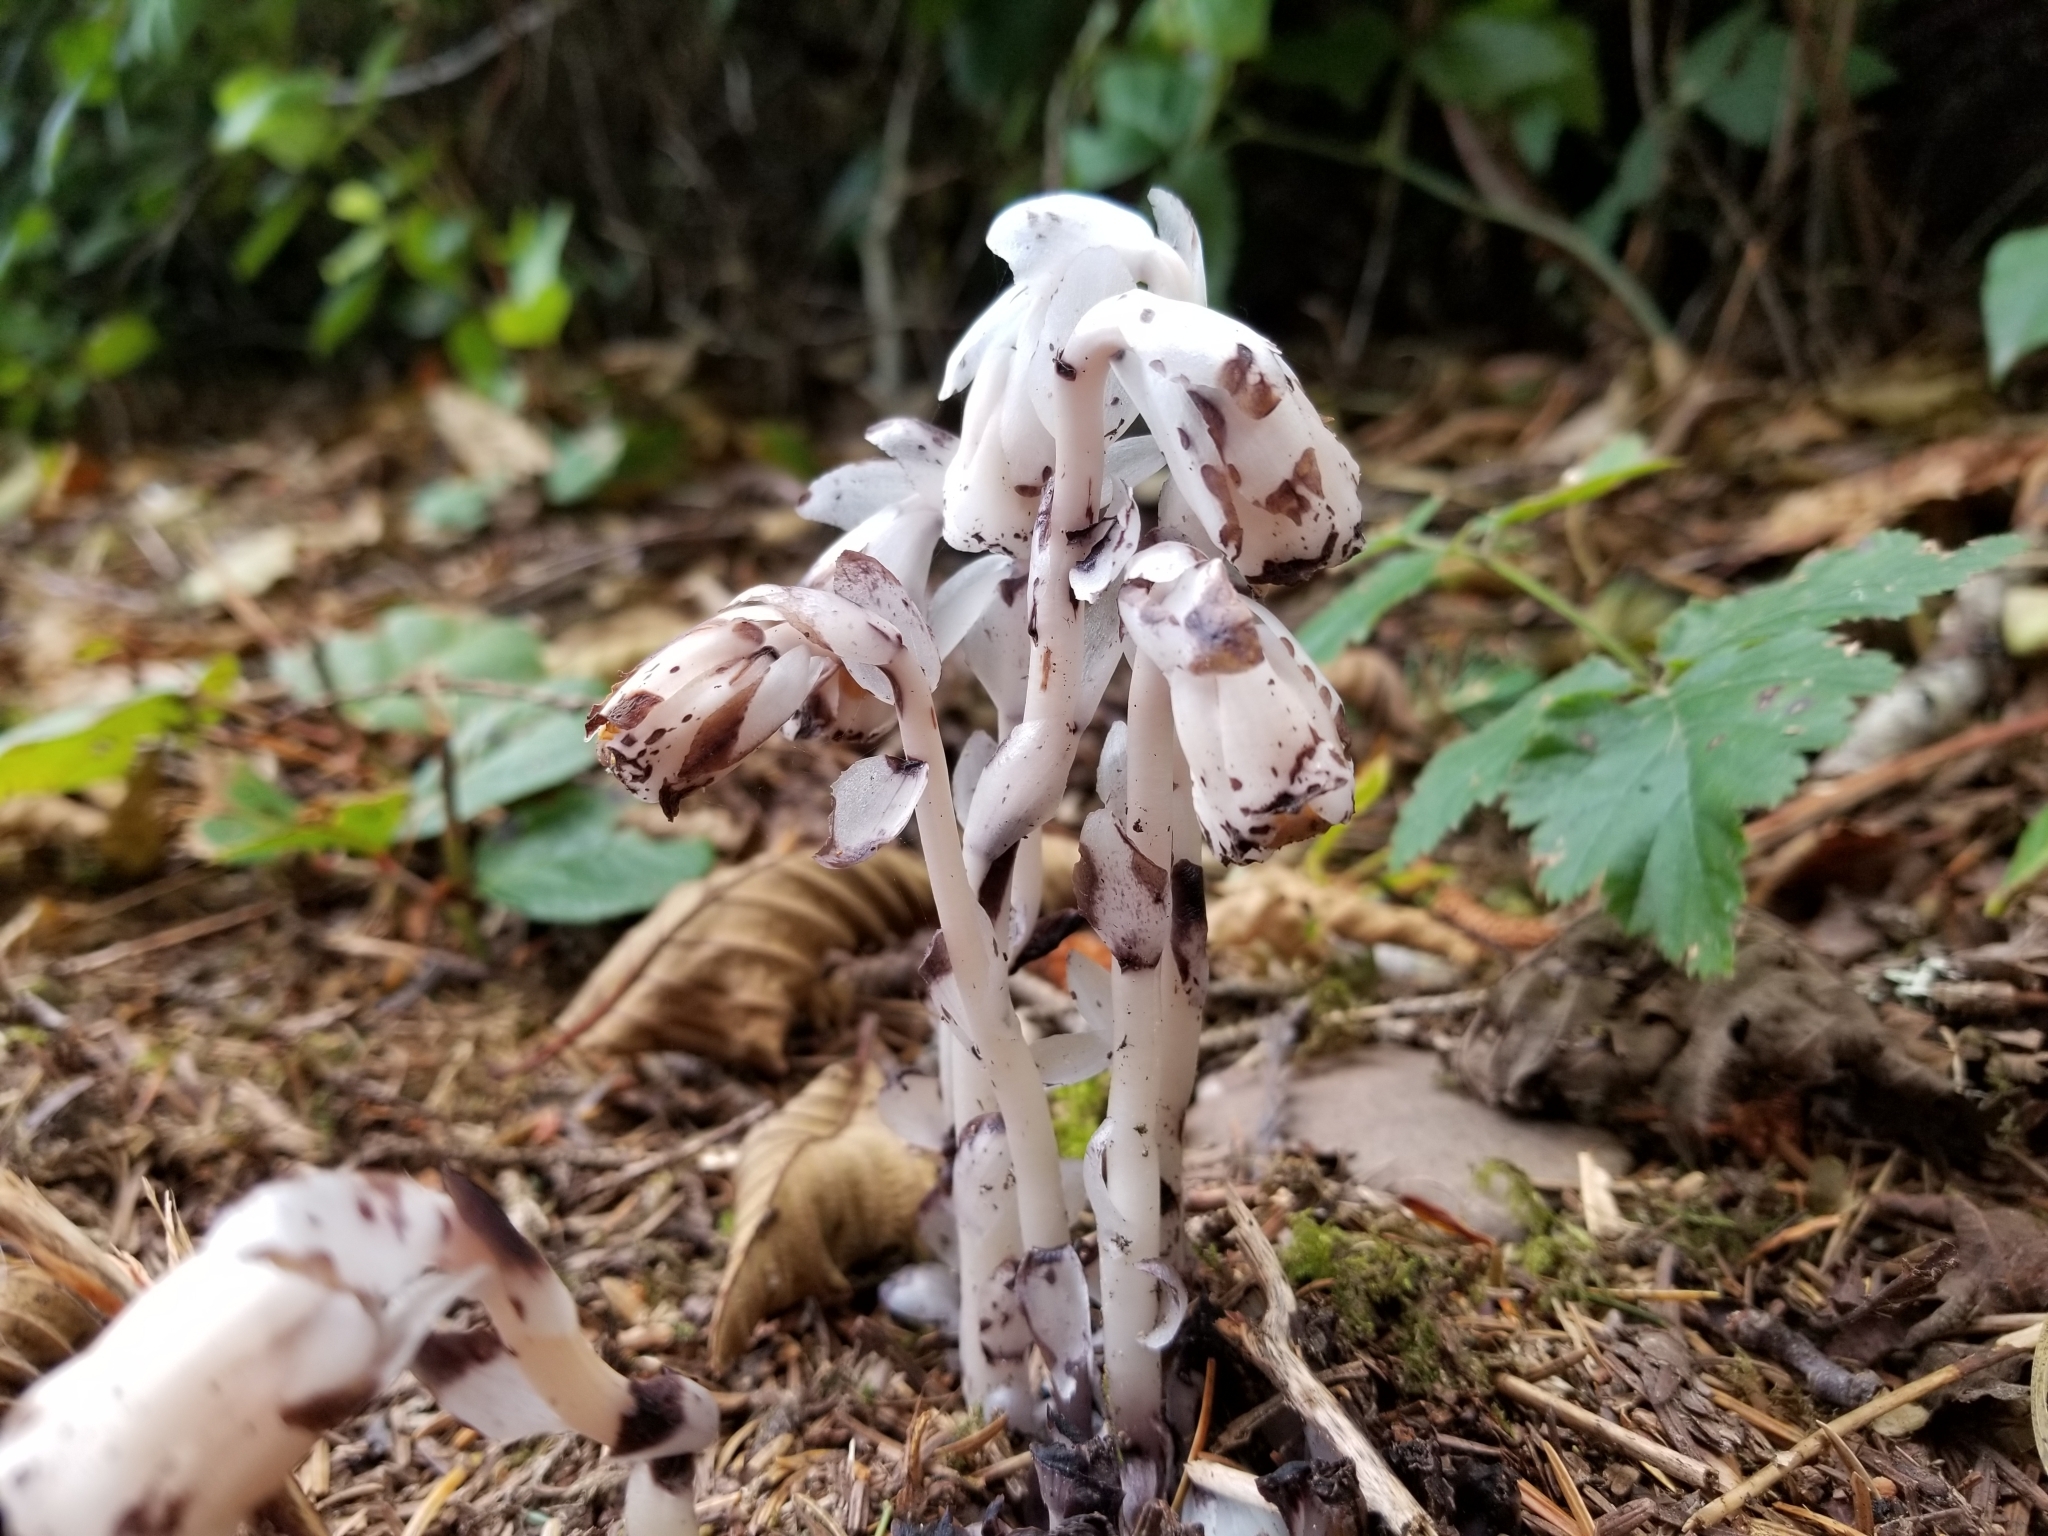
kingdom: Plantae
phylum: Tracheophyta
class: Magnoliopsida
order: Ericales
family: Ericaceae
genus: Monotropa
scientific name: Monotropa uniflora
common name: Convulsion root
